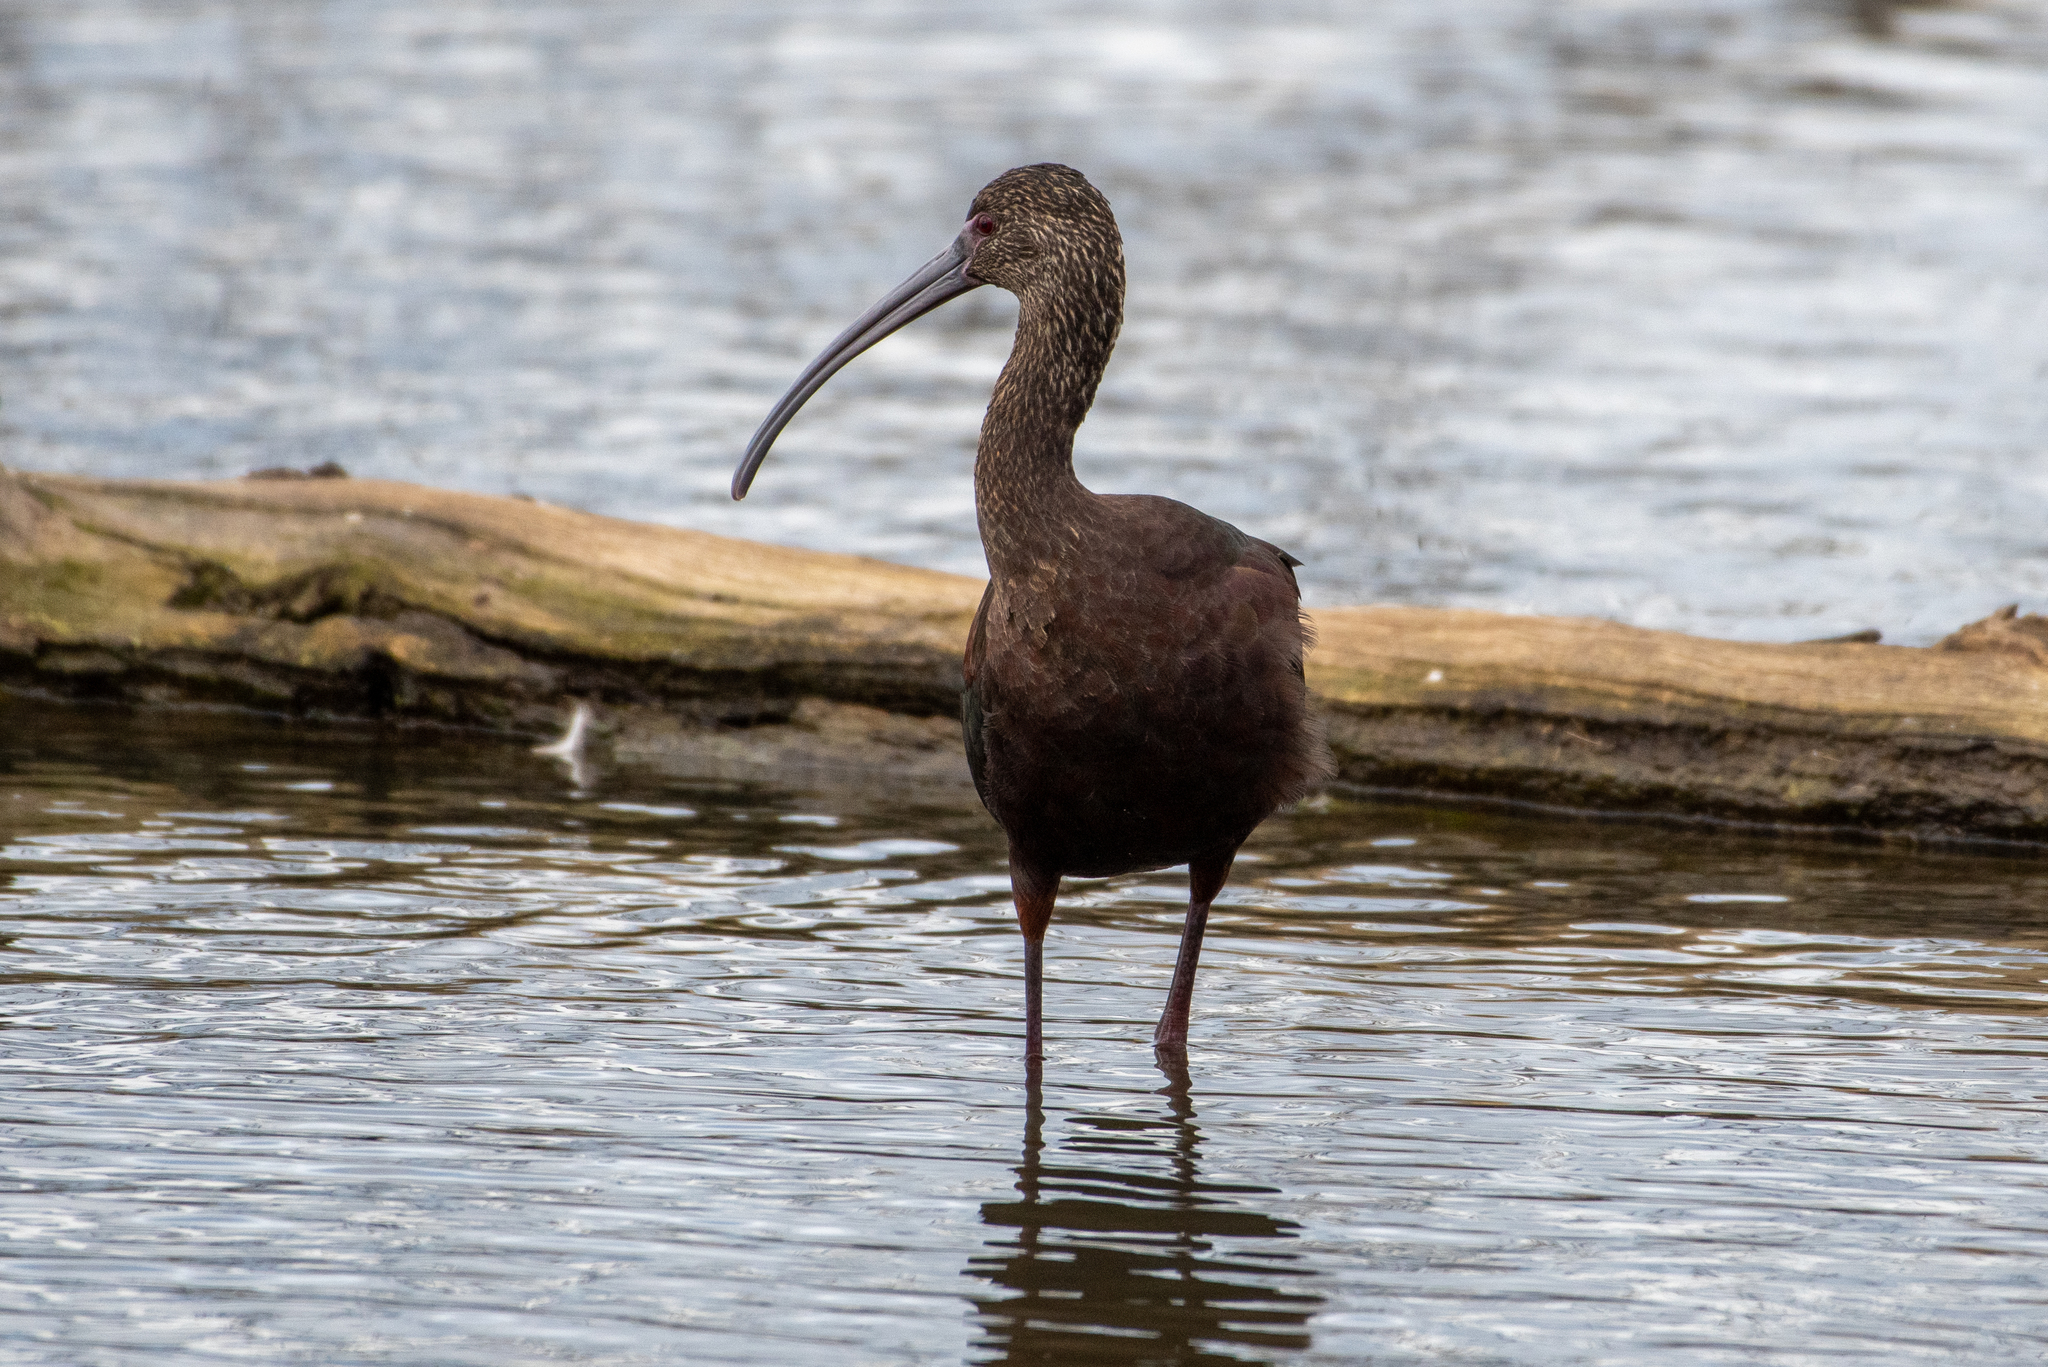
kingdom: Animalia
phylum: Chordata
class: Aves
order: Pelecaniformes
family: Threskiornithidae
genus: Plegadis
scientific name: Plegadis chihi
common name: White-faced ibis
